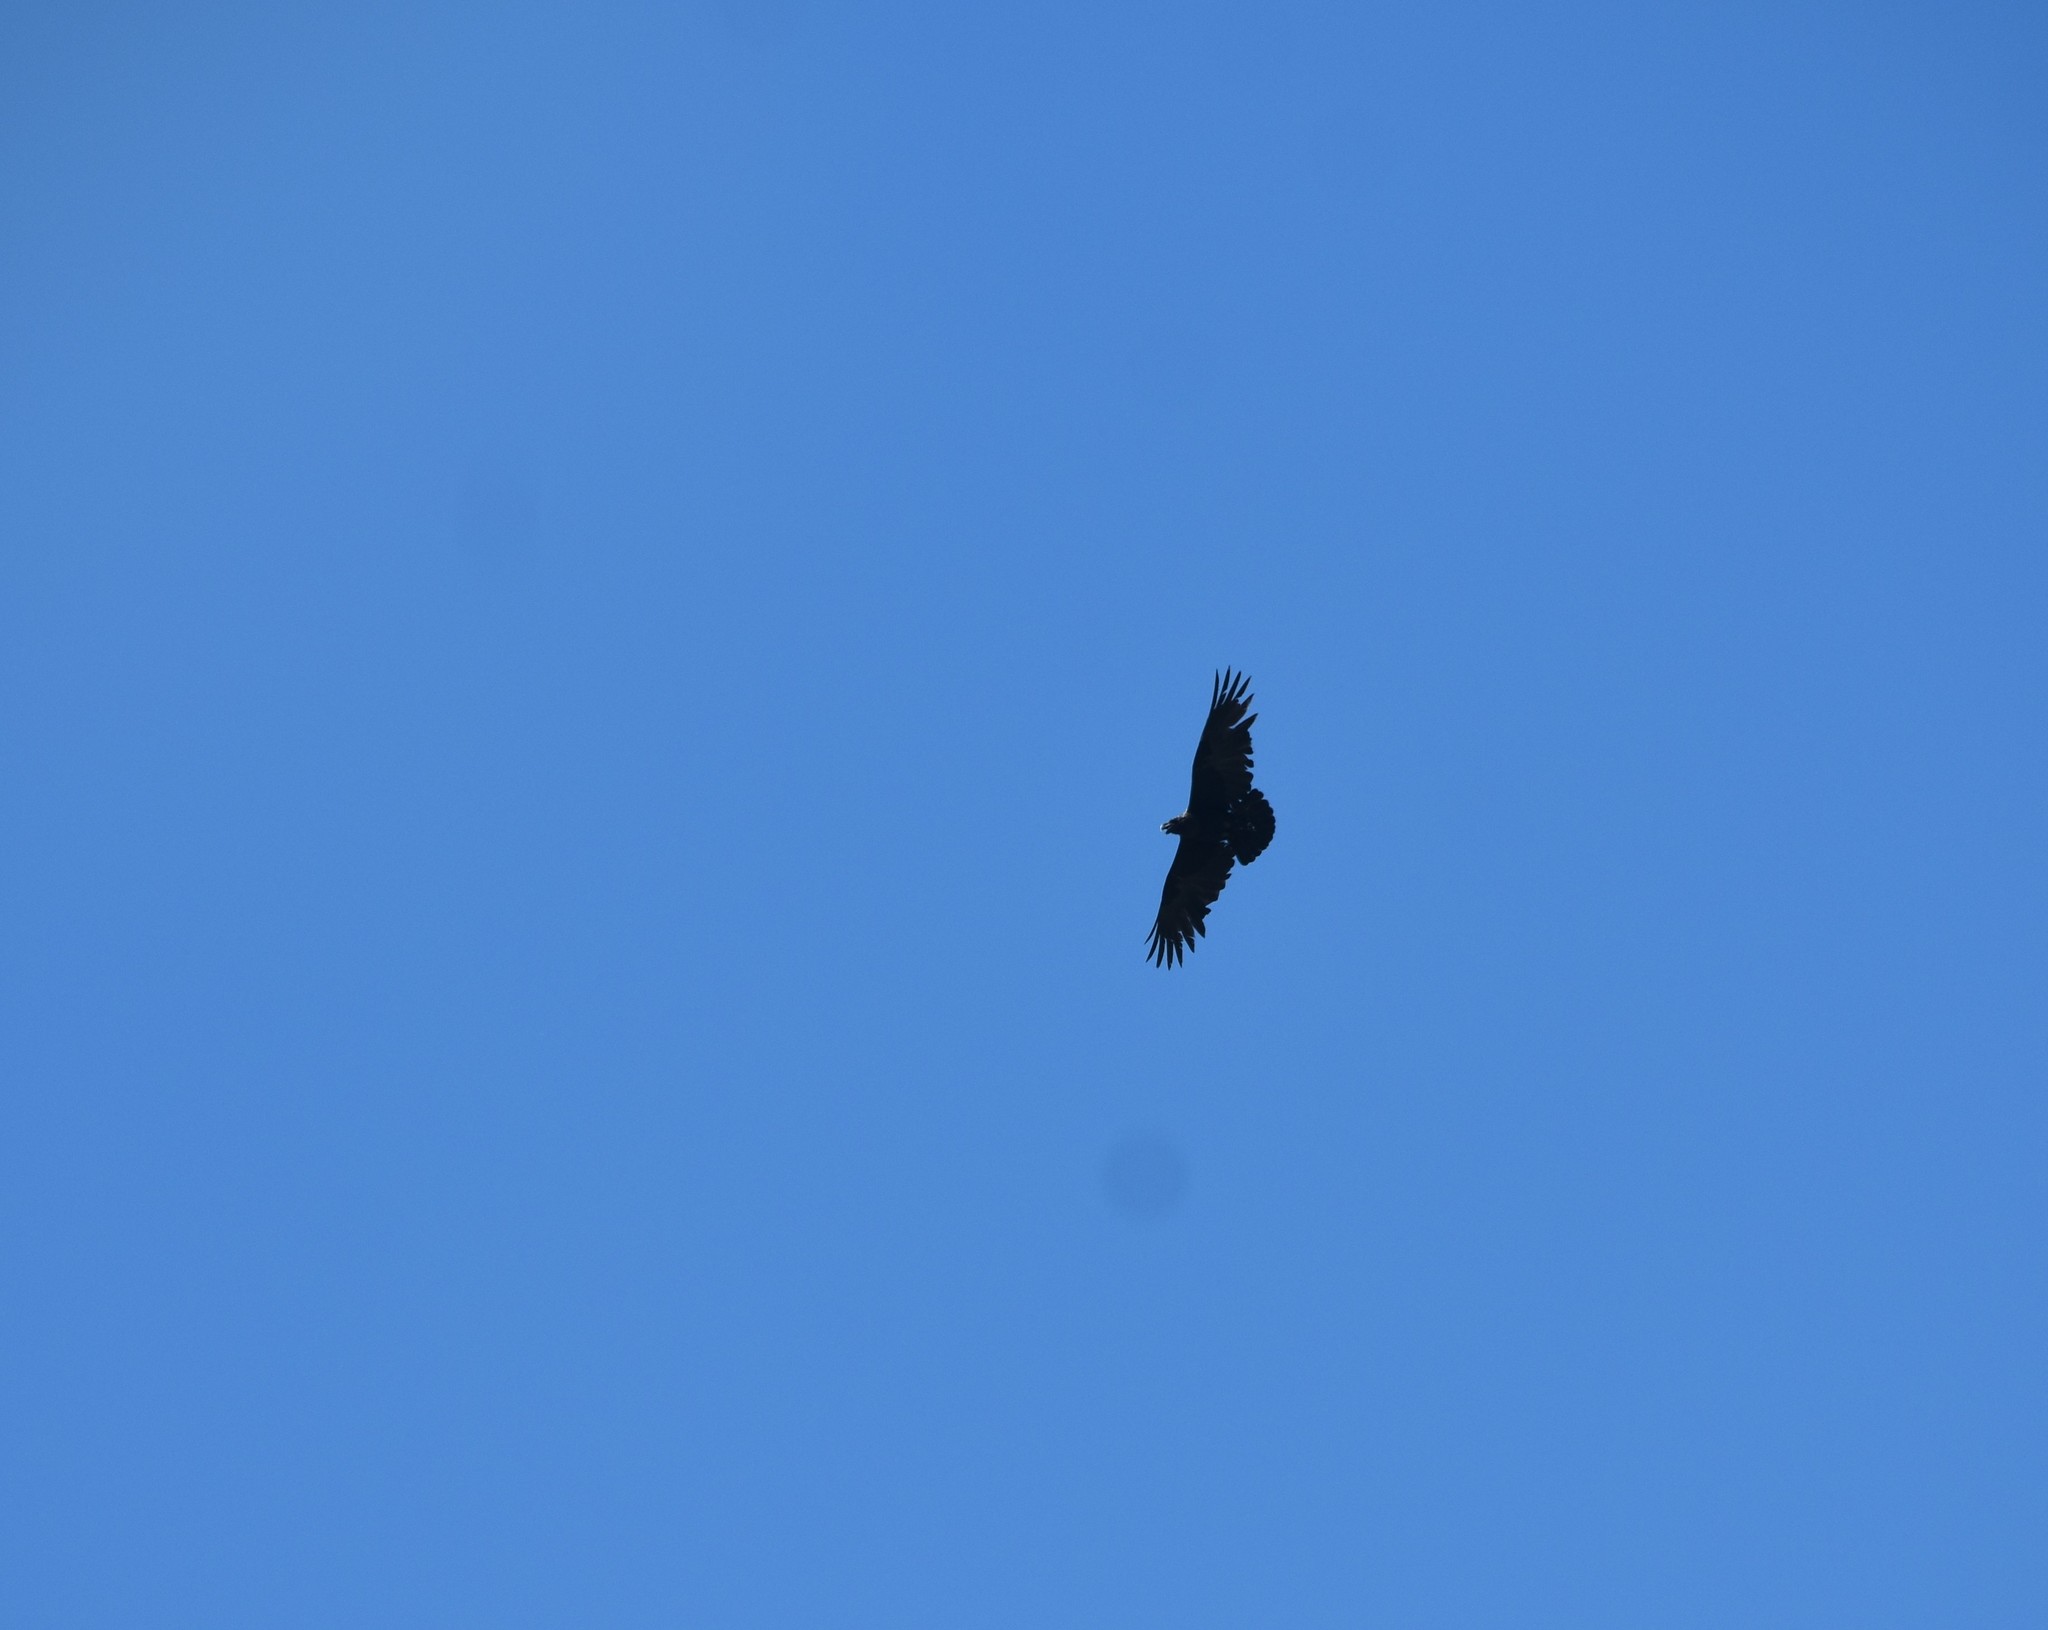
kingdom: Animalia
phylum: Chordata
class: Aves
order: Passeriformes
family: Corvidae
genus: Corvus
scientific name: Corvus albicollis
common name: White-necked raven
